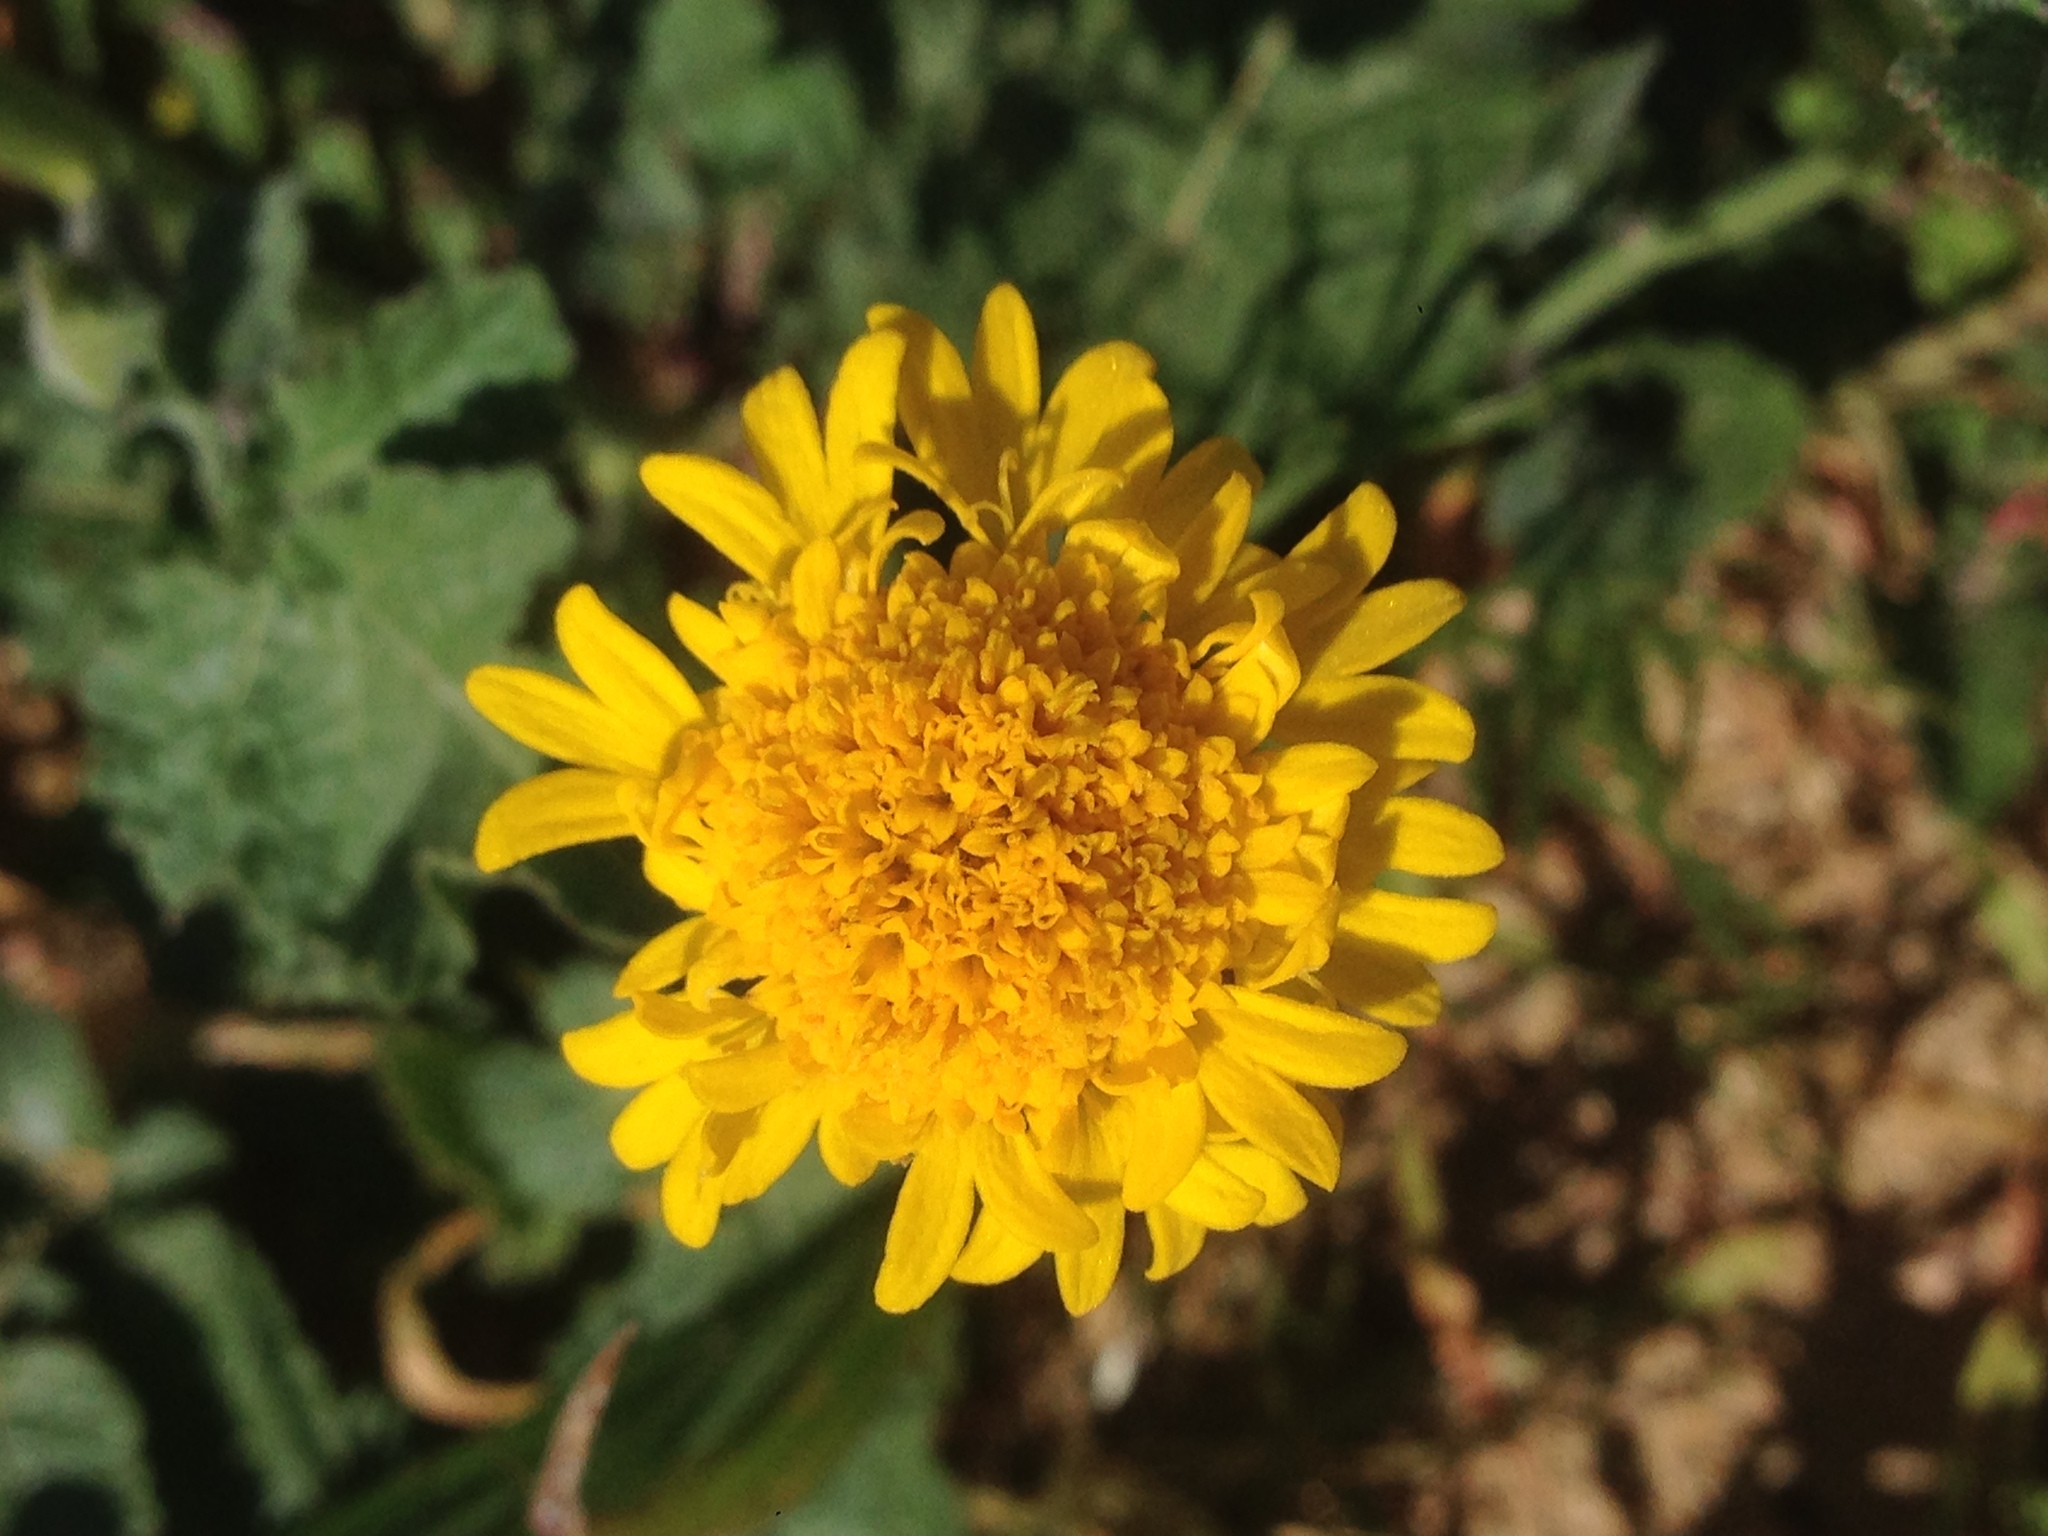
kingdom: Plantae
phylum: Tracheophyta
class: Magnoliopsida
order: Asterales
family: Asteraceae
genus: Chaenactis
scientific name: Chaenactis glabriuscula
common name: Yellow pincushion
